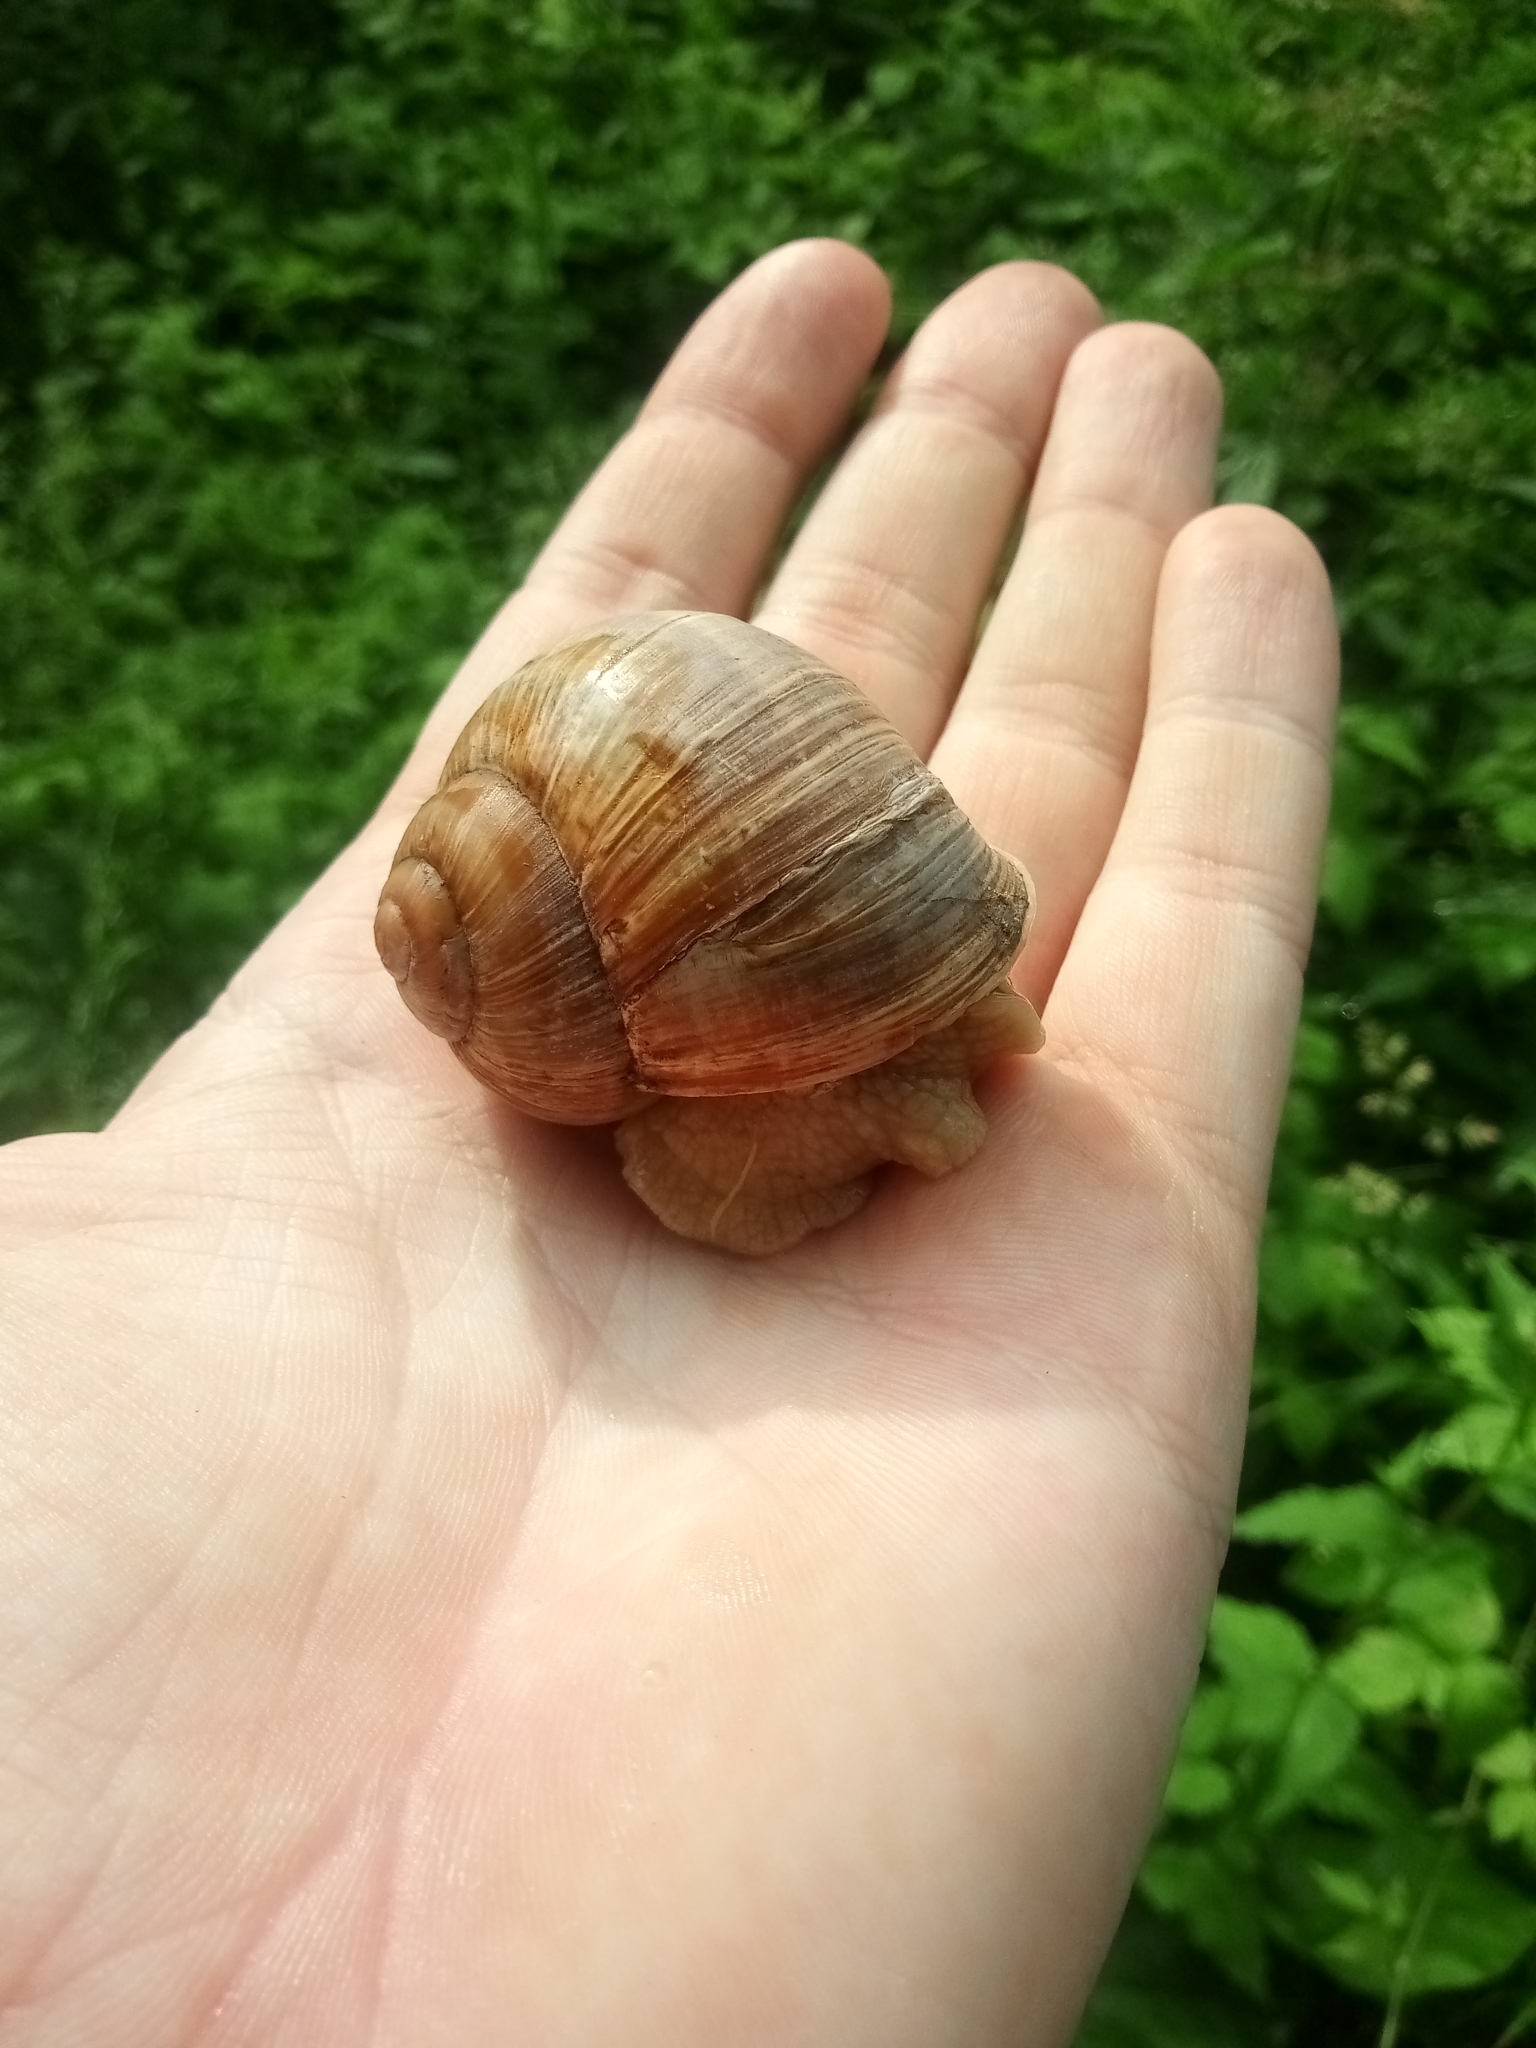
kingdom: Animalia
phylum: Mollusca
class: Gastropoda
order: Stylommatophora
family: Helicidae
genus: Helix
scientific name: Helix pomatia
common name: Roman snail
